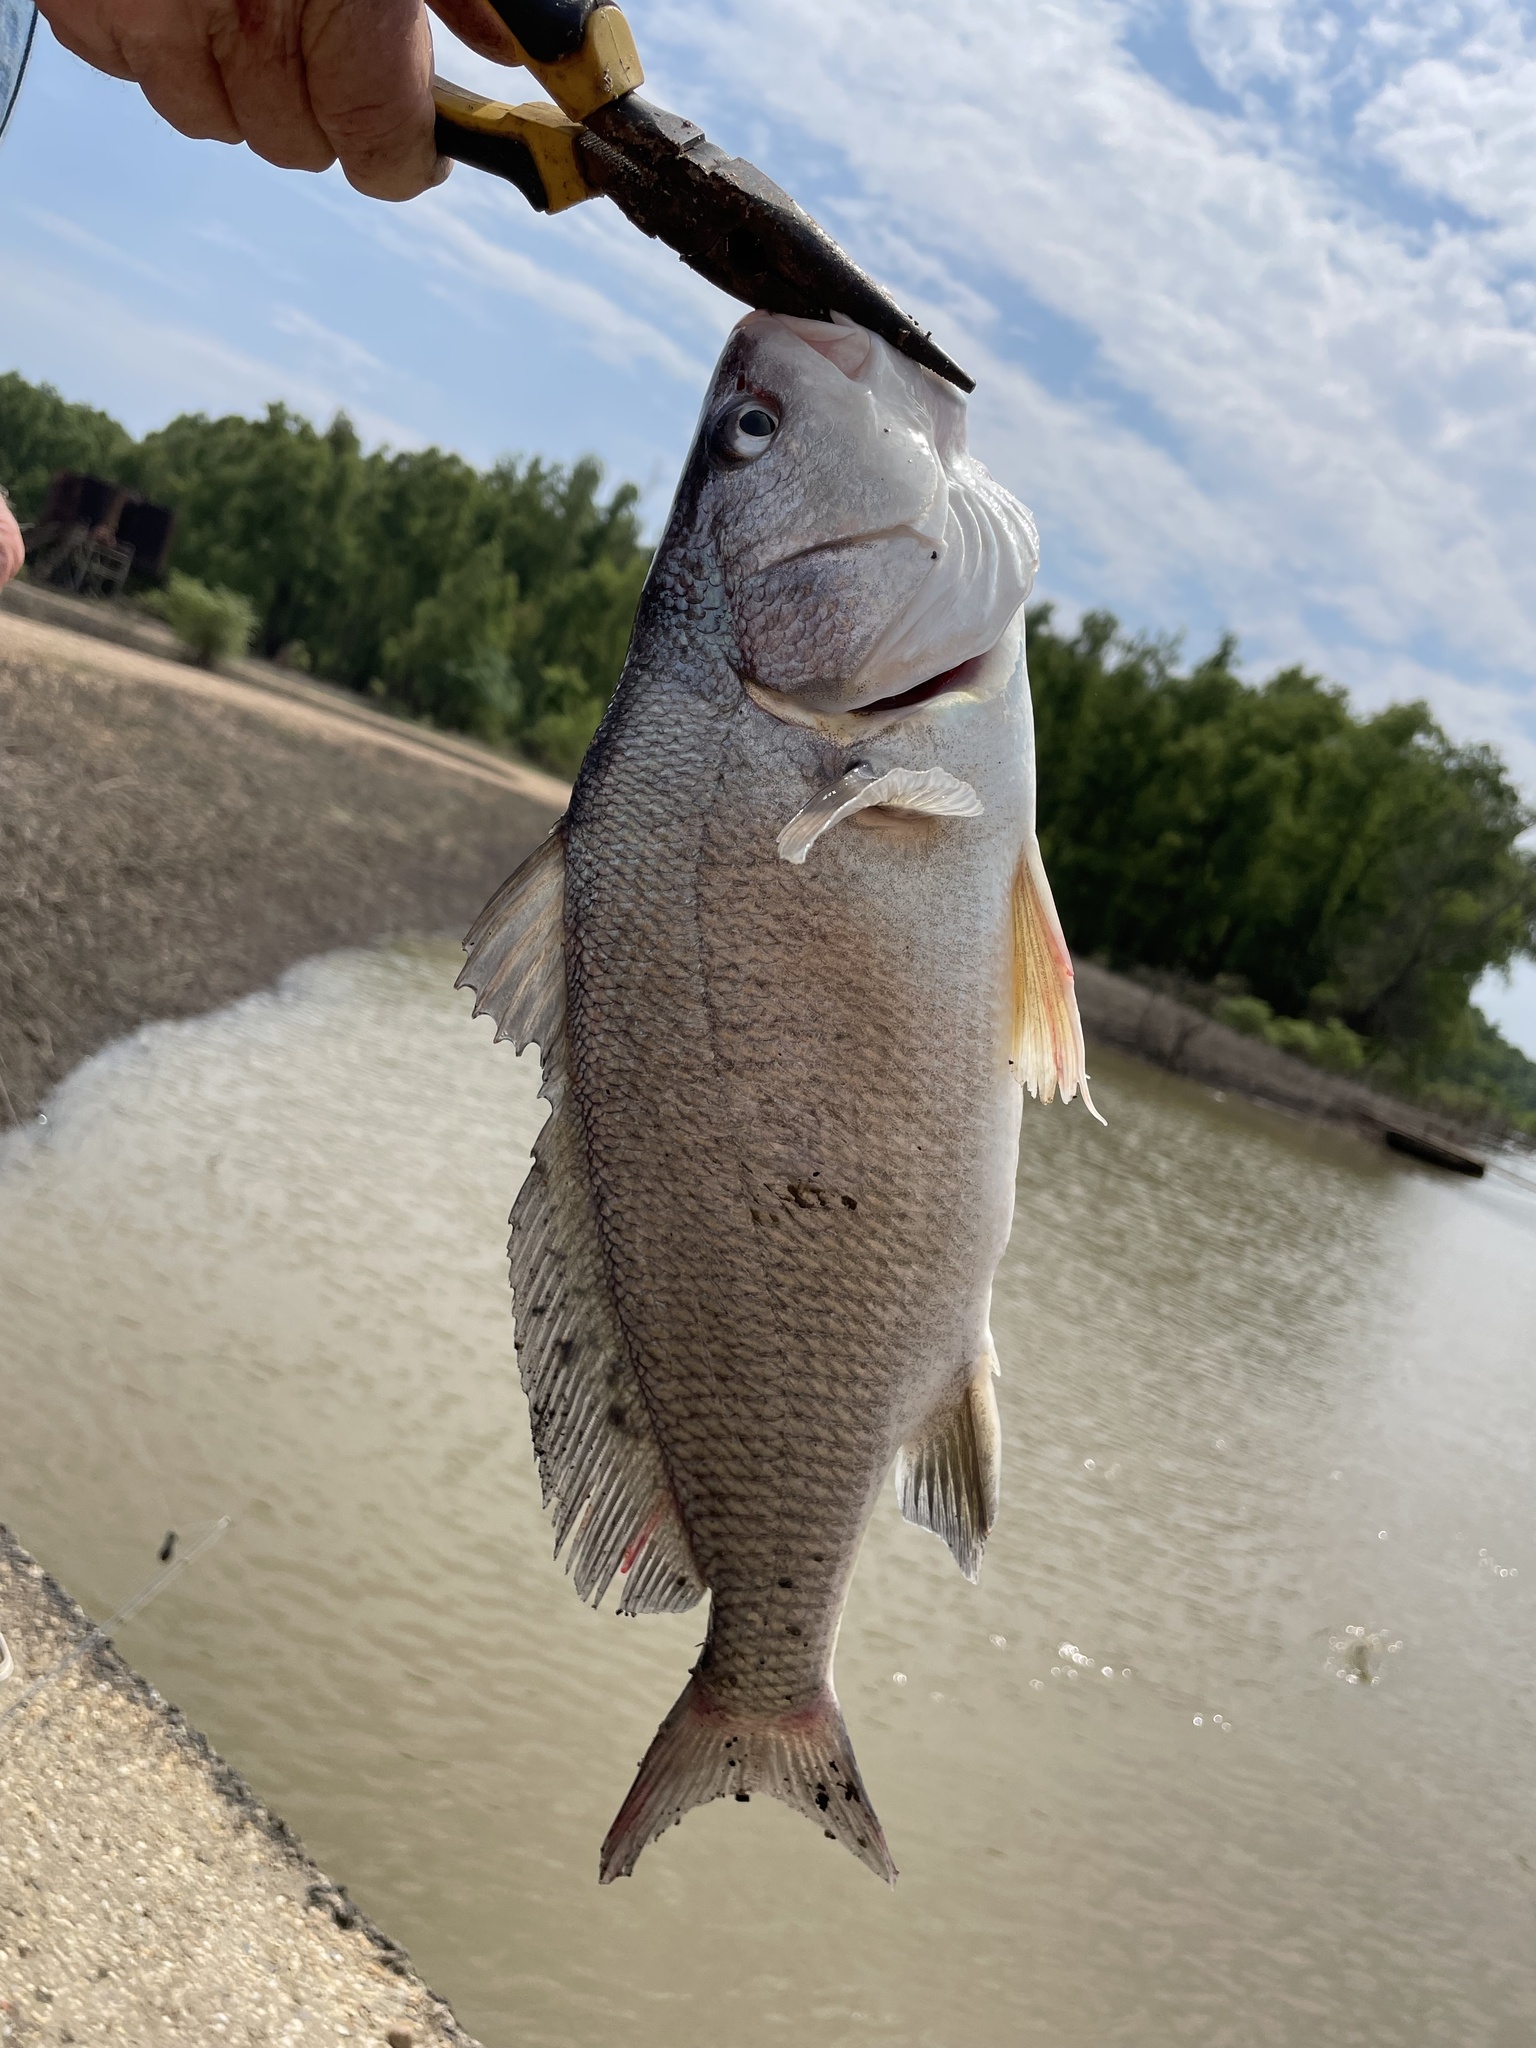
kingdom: Animalia
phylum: Chordata
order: Perciformes
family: Sciaenidae
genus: Aplodinotus
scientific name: Aplodinotus grunniens
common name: Freshwater drum
